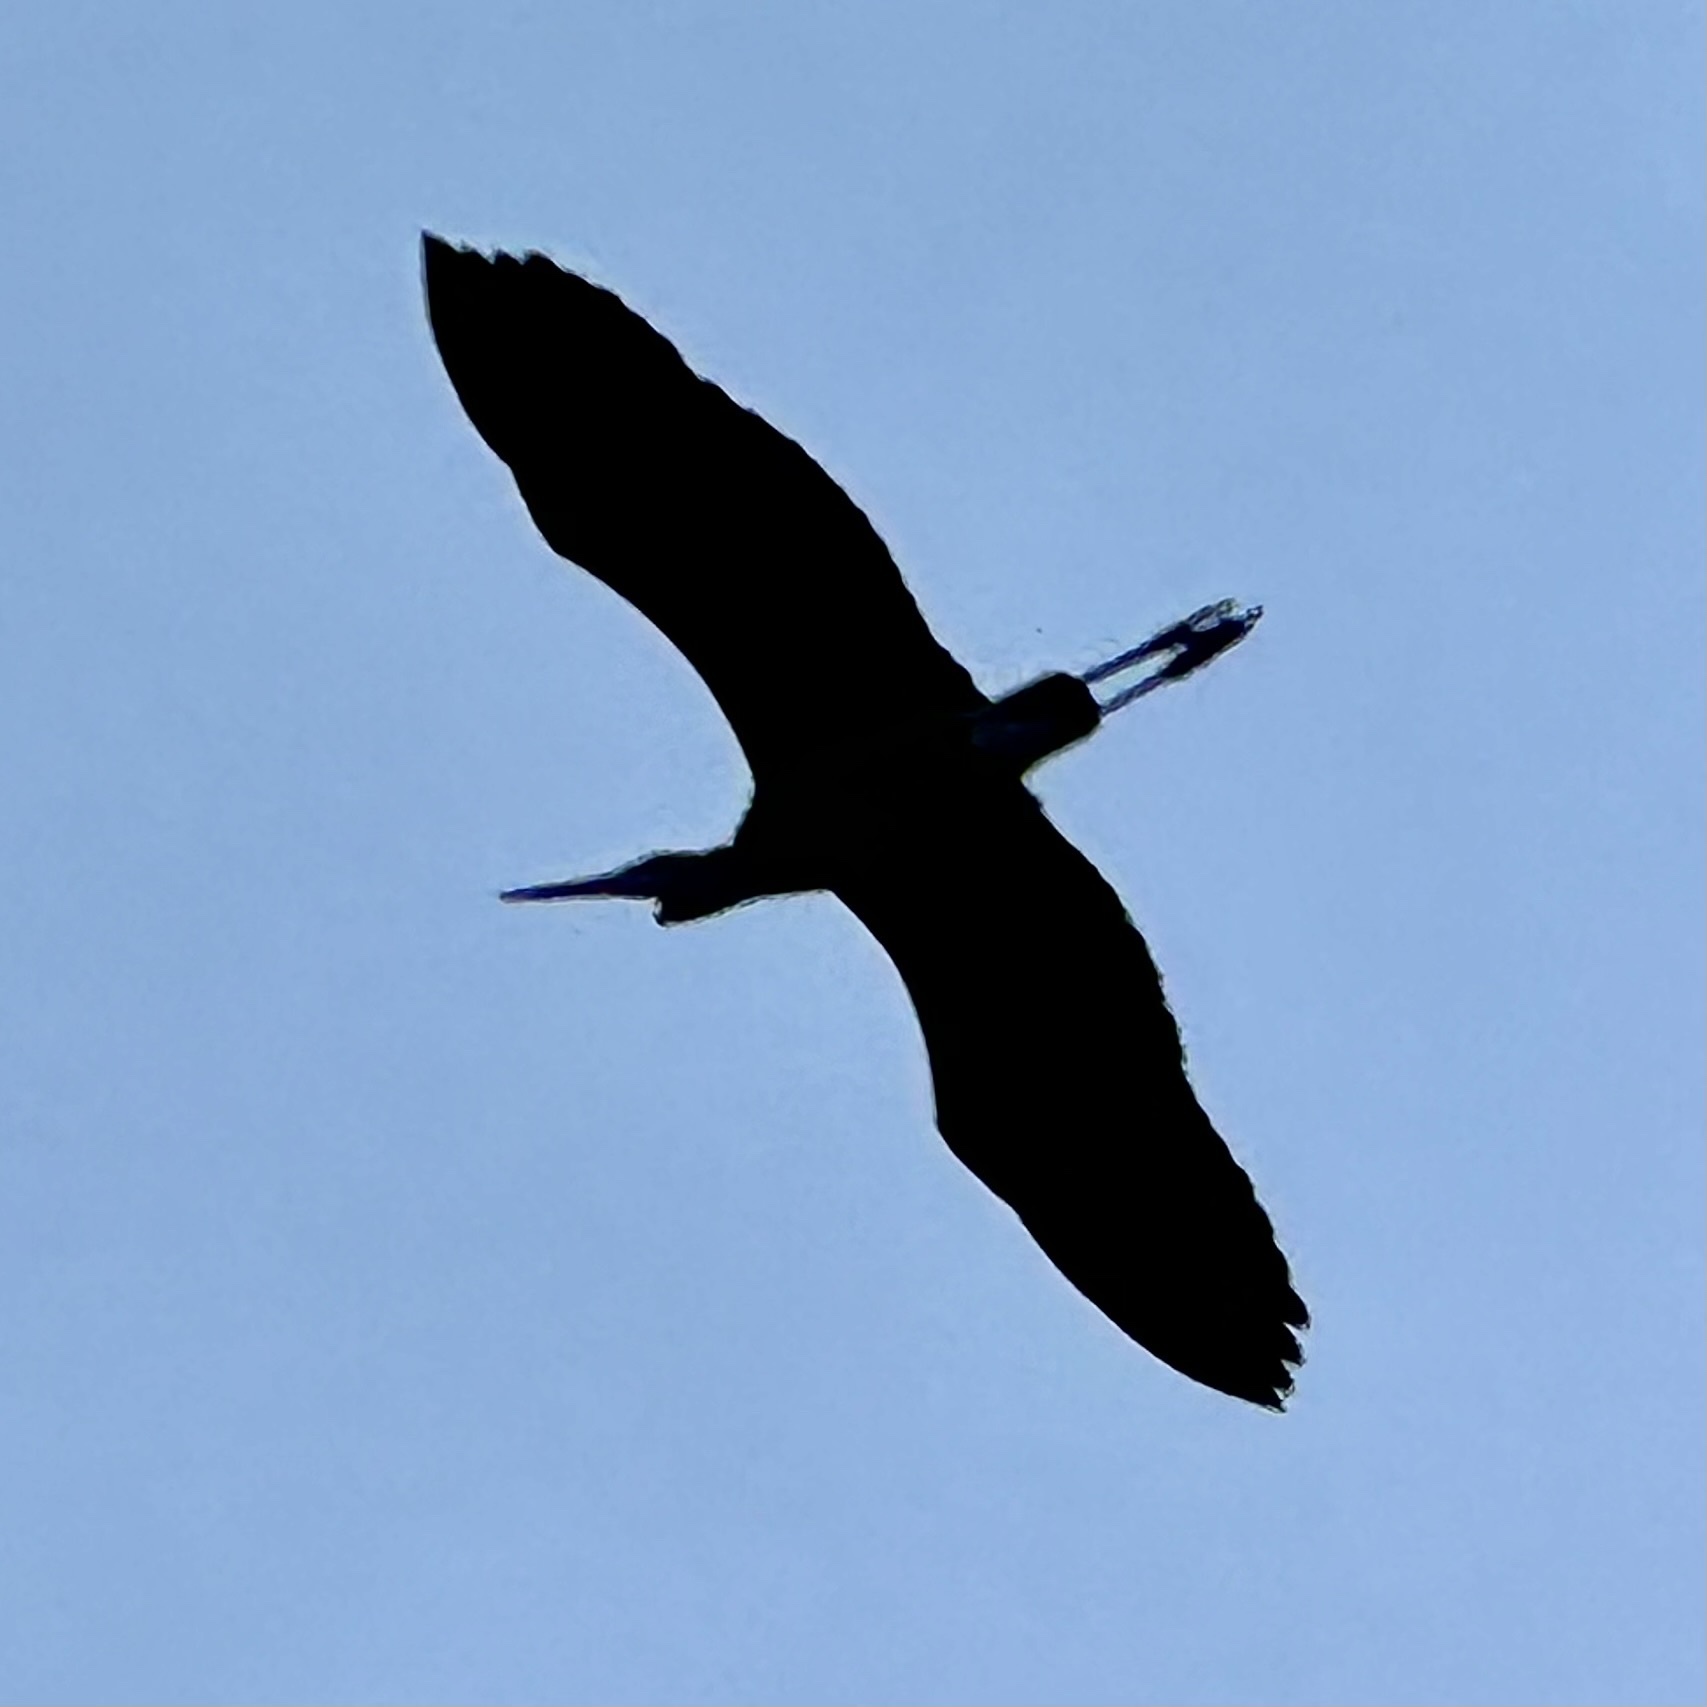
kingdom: Animalia
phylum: Chordata
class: Aves
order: Pelecaniformes
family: Ardeidae
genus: Ardea
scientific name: Ardea herodias
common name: Great blue heron
